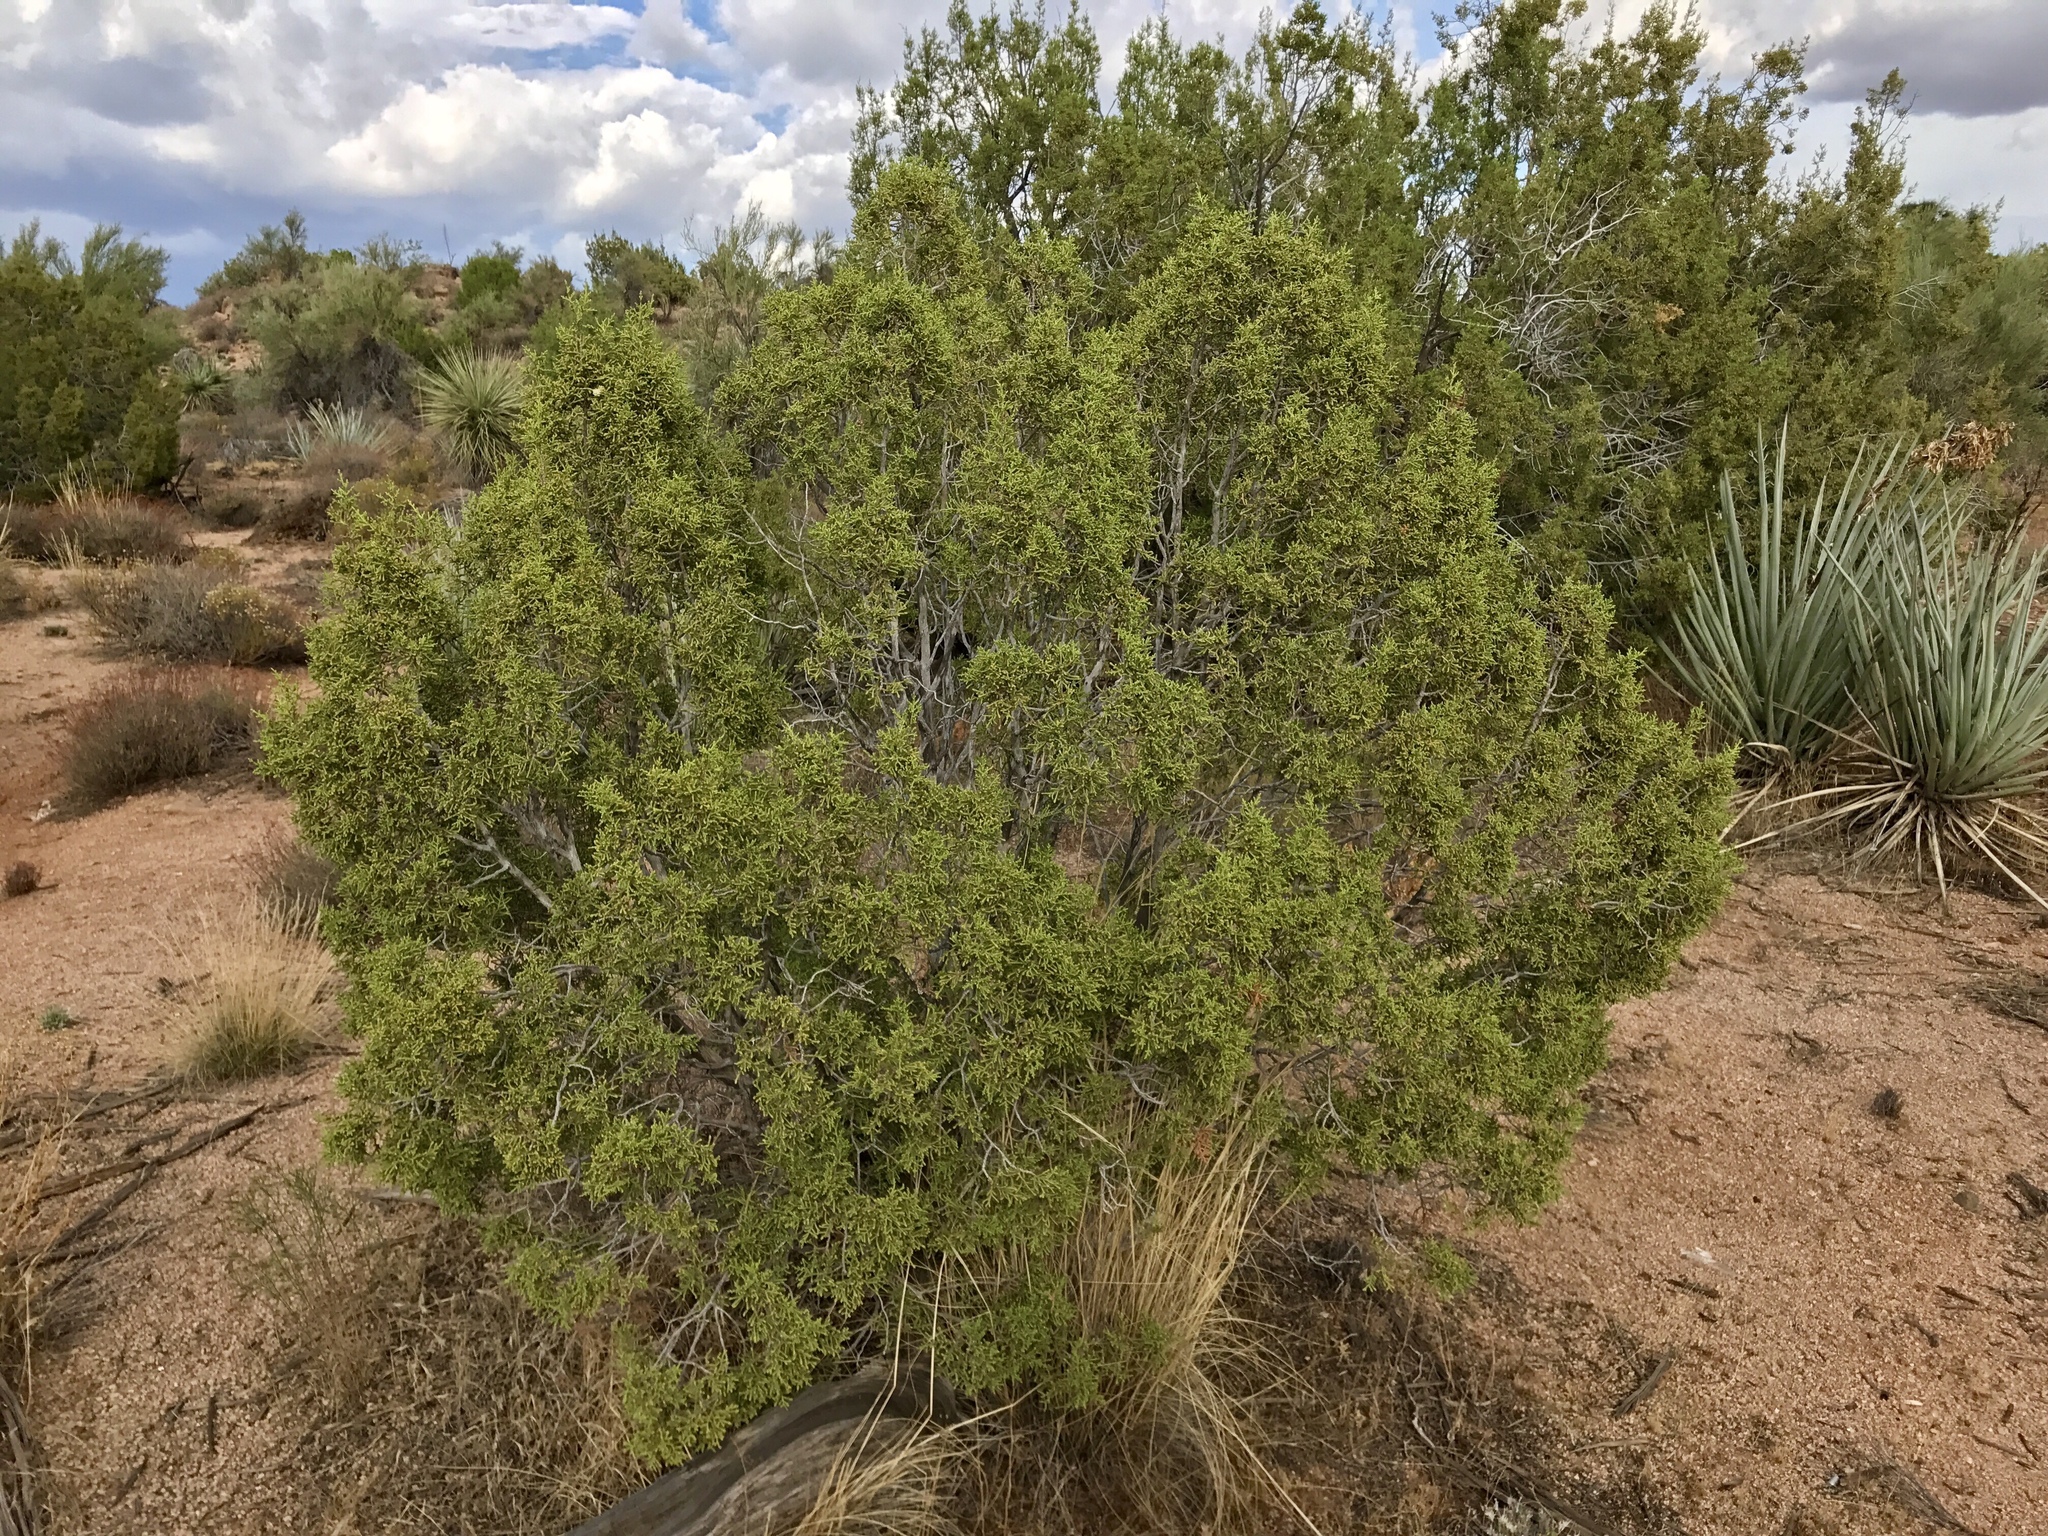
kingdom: Plantae
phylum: Tracheophyta
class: Pinopsida
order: Pinales
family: Cupressaceae
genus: Juniperus
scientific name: Juniperus californica
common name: California juniper
